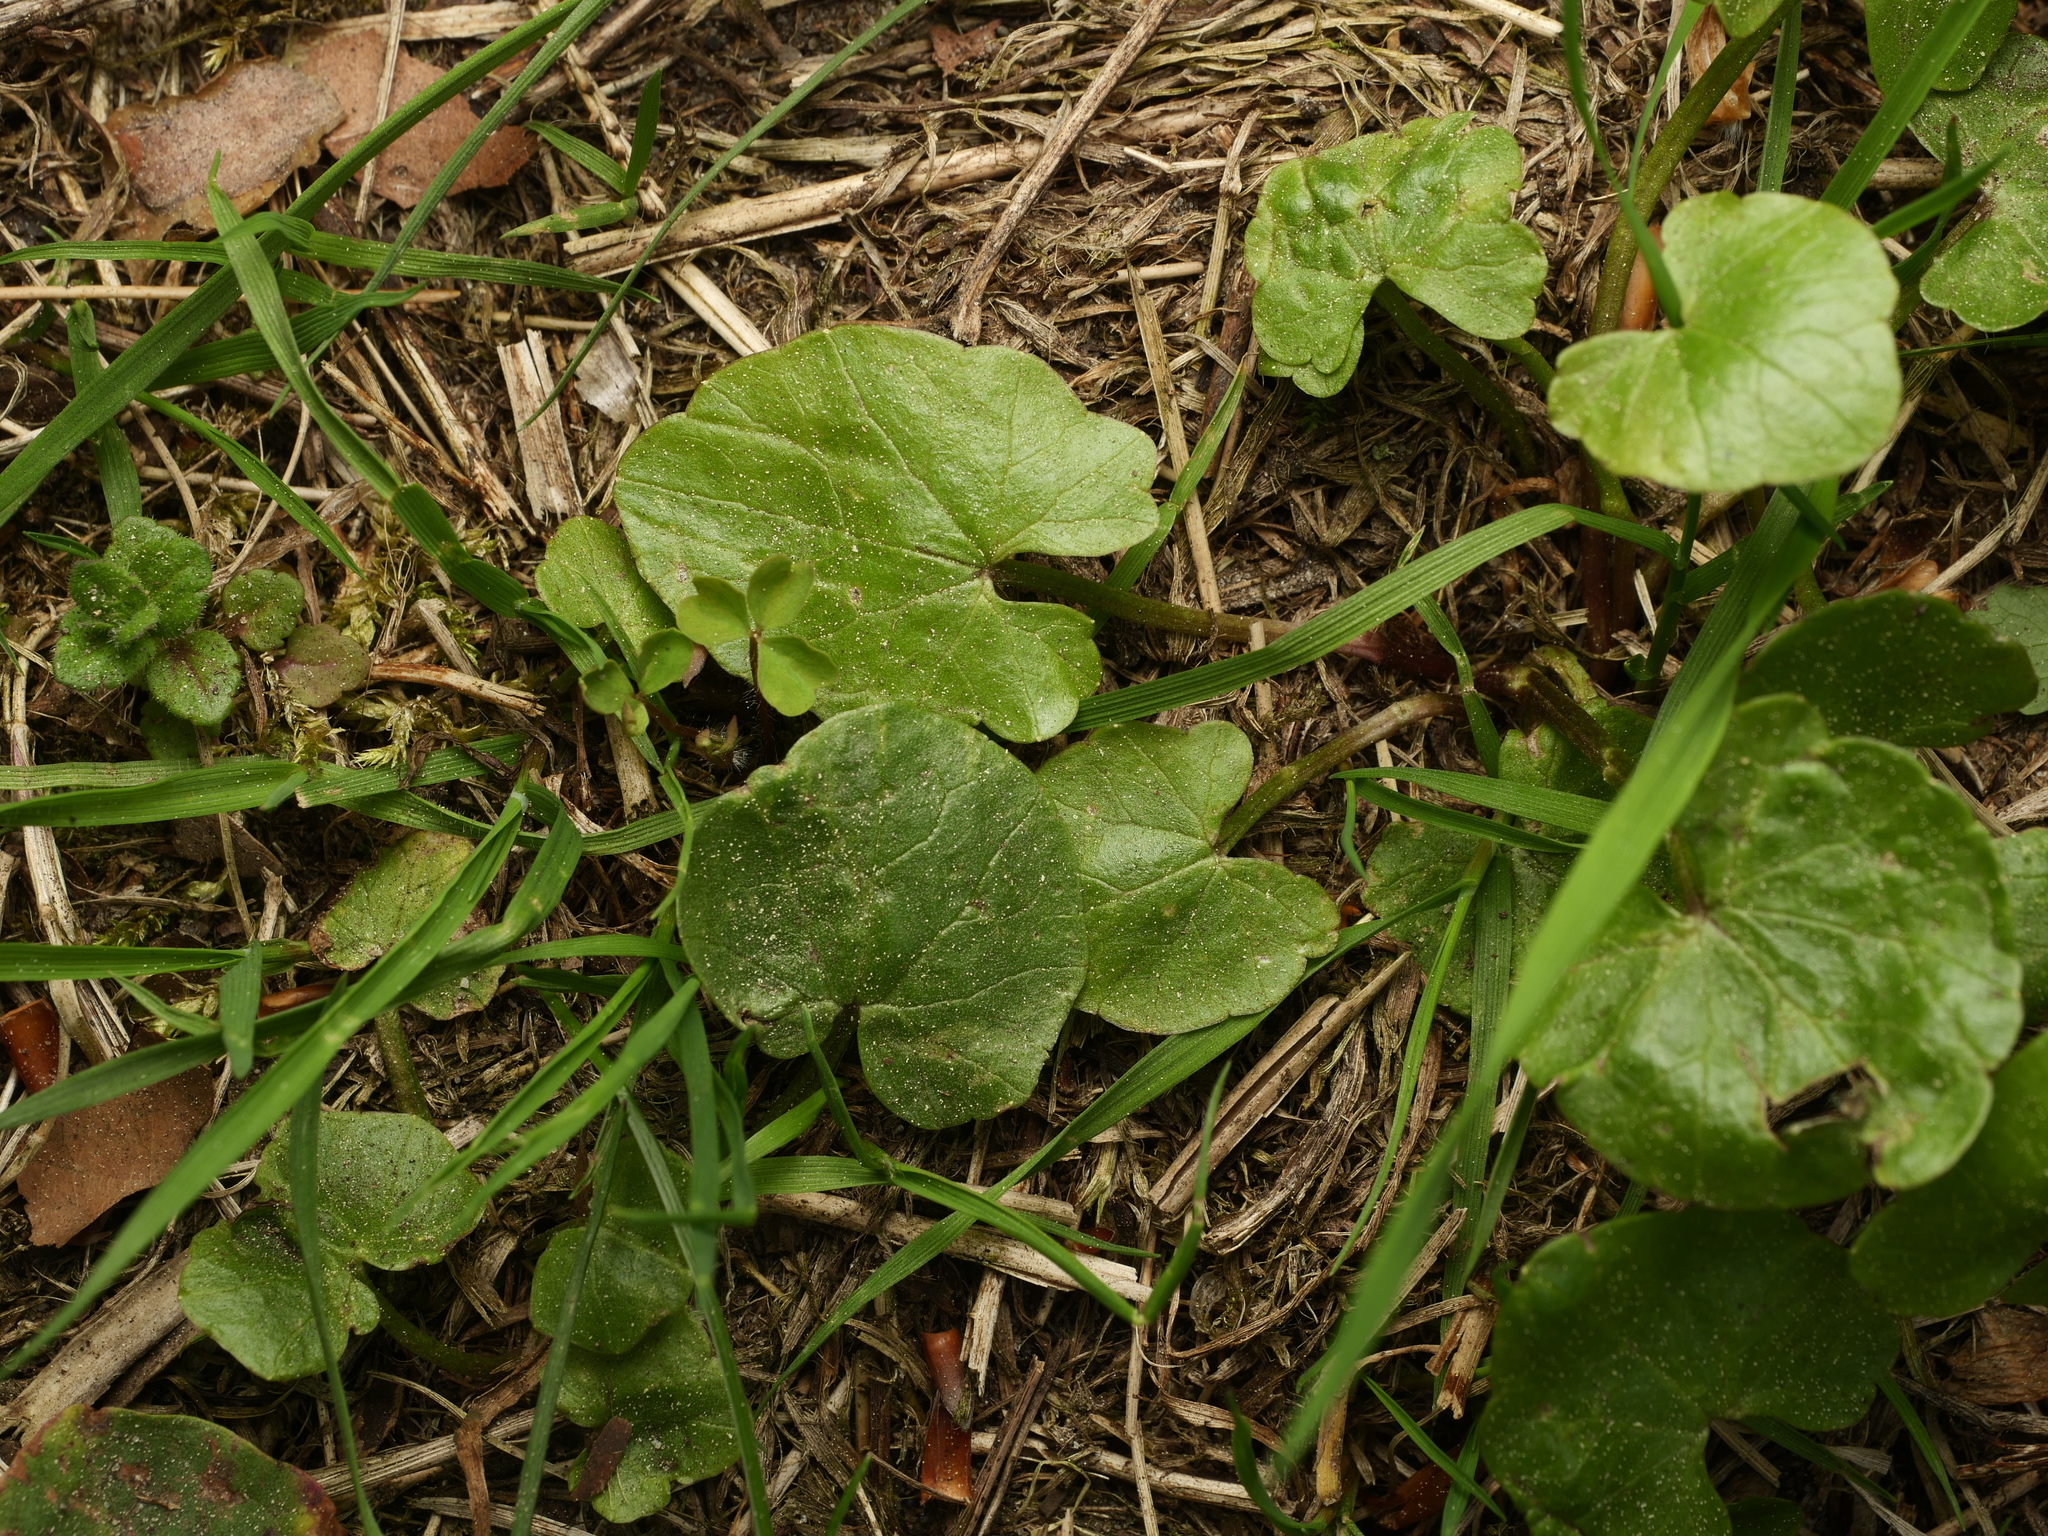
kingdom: Plantae
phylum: Tracheophyta
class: Magnoliopsida
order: Ranunculales
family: Ranunculaceae
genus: Ficaria
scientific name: Ficaria verna
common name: Lesser celandine
